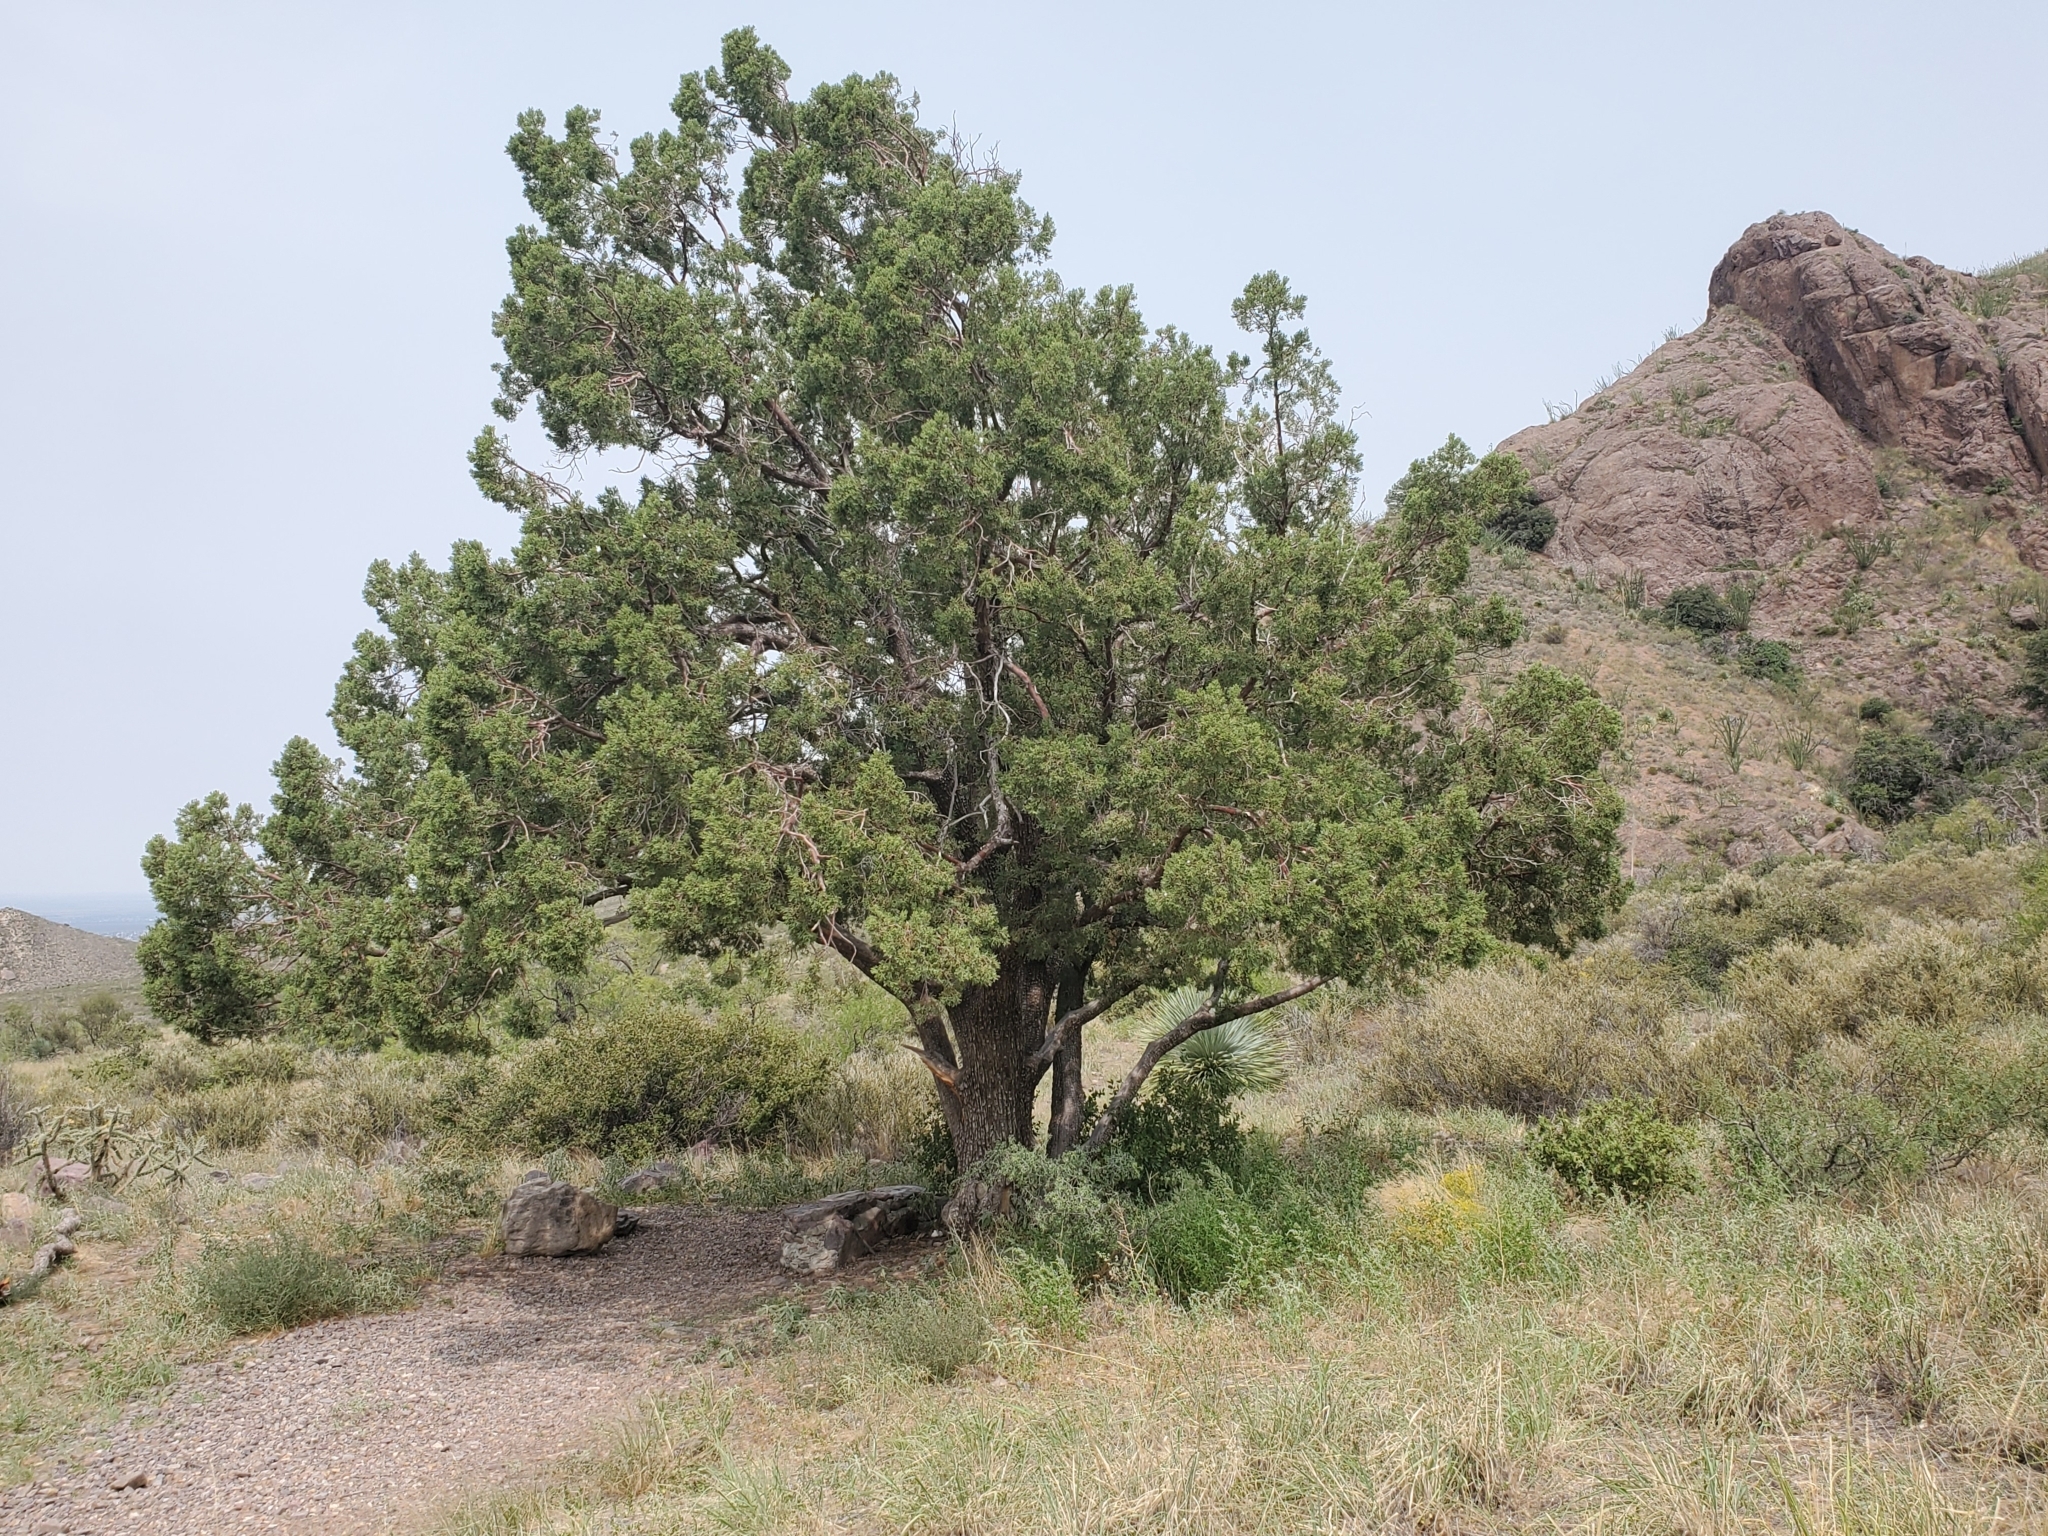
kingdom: Plantae
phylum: Tracheophyta
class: Pinopsida
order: Pinales
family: Cupressaceae
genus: Juniperus
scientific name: Juniperus deppeana
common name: Alligator juniper
